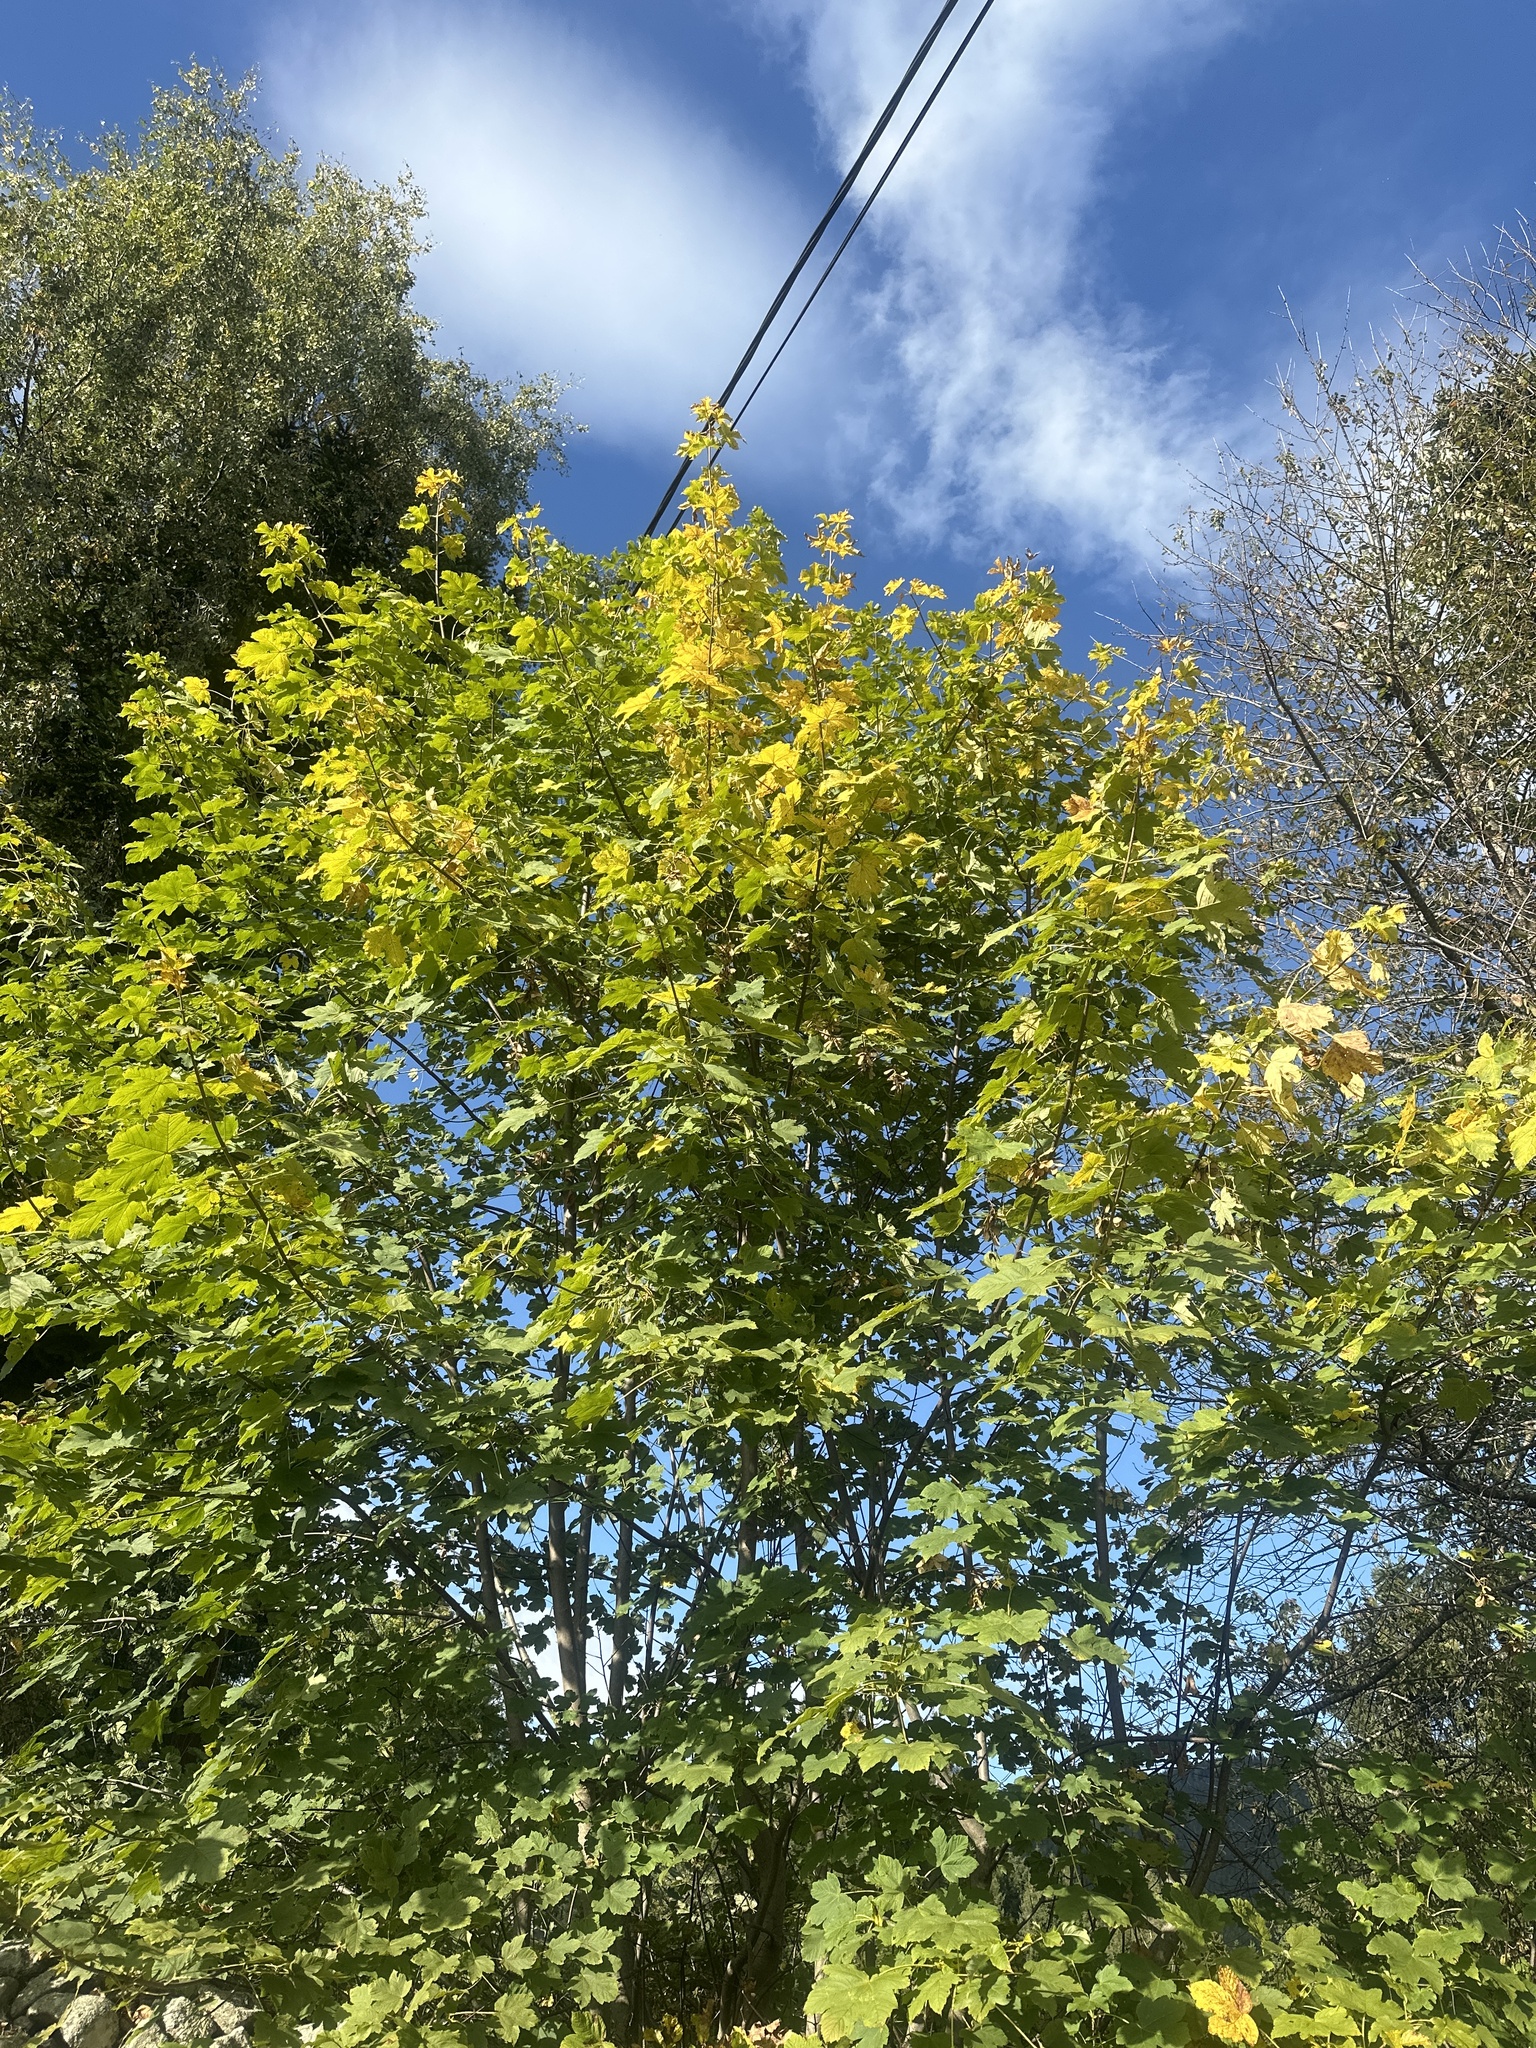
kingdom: Plantae
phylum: Tracheophyta
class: Magnoliopsida
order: Sapindales
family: Sapindaceae
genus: Acer
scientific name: Acer pseudoplatanus
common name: Sycamore
